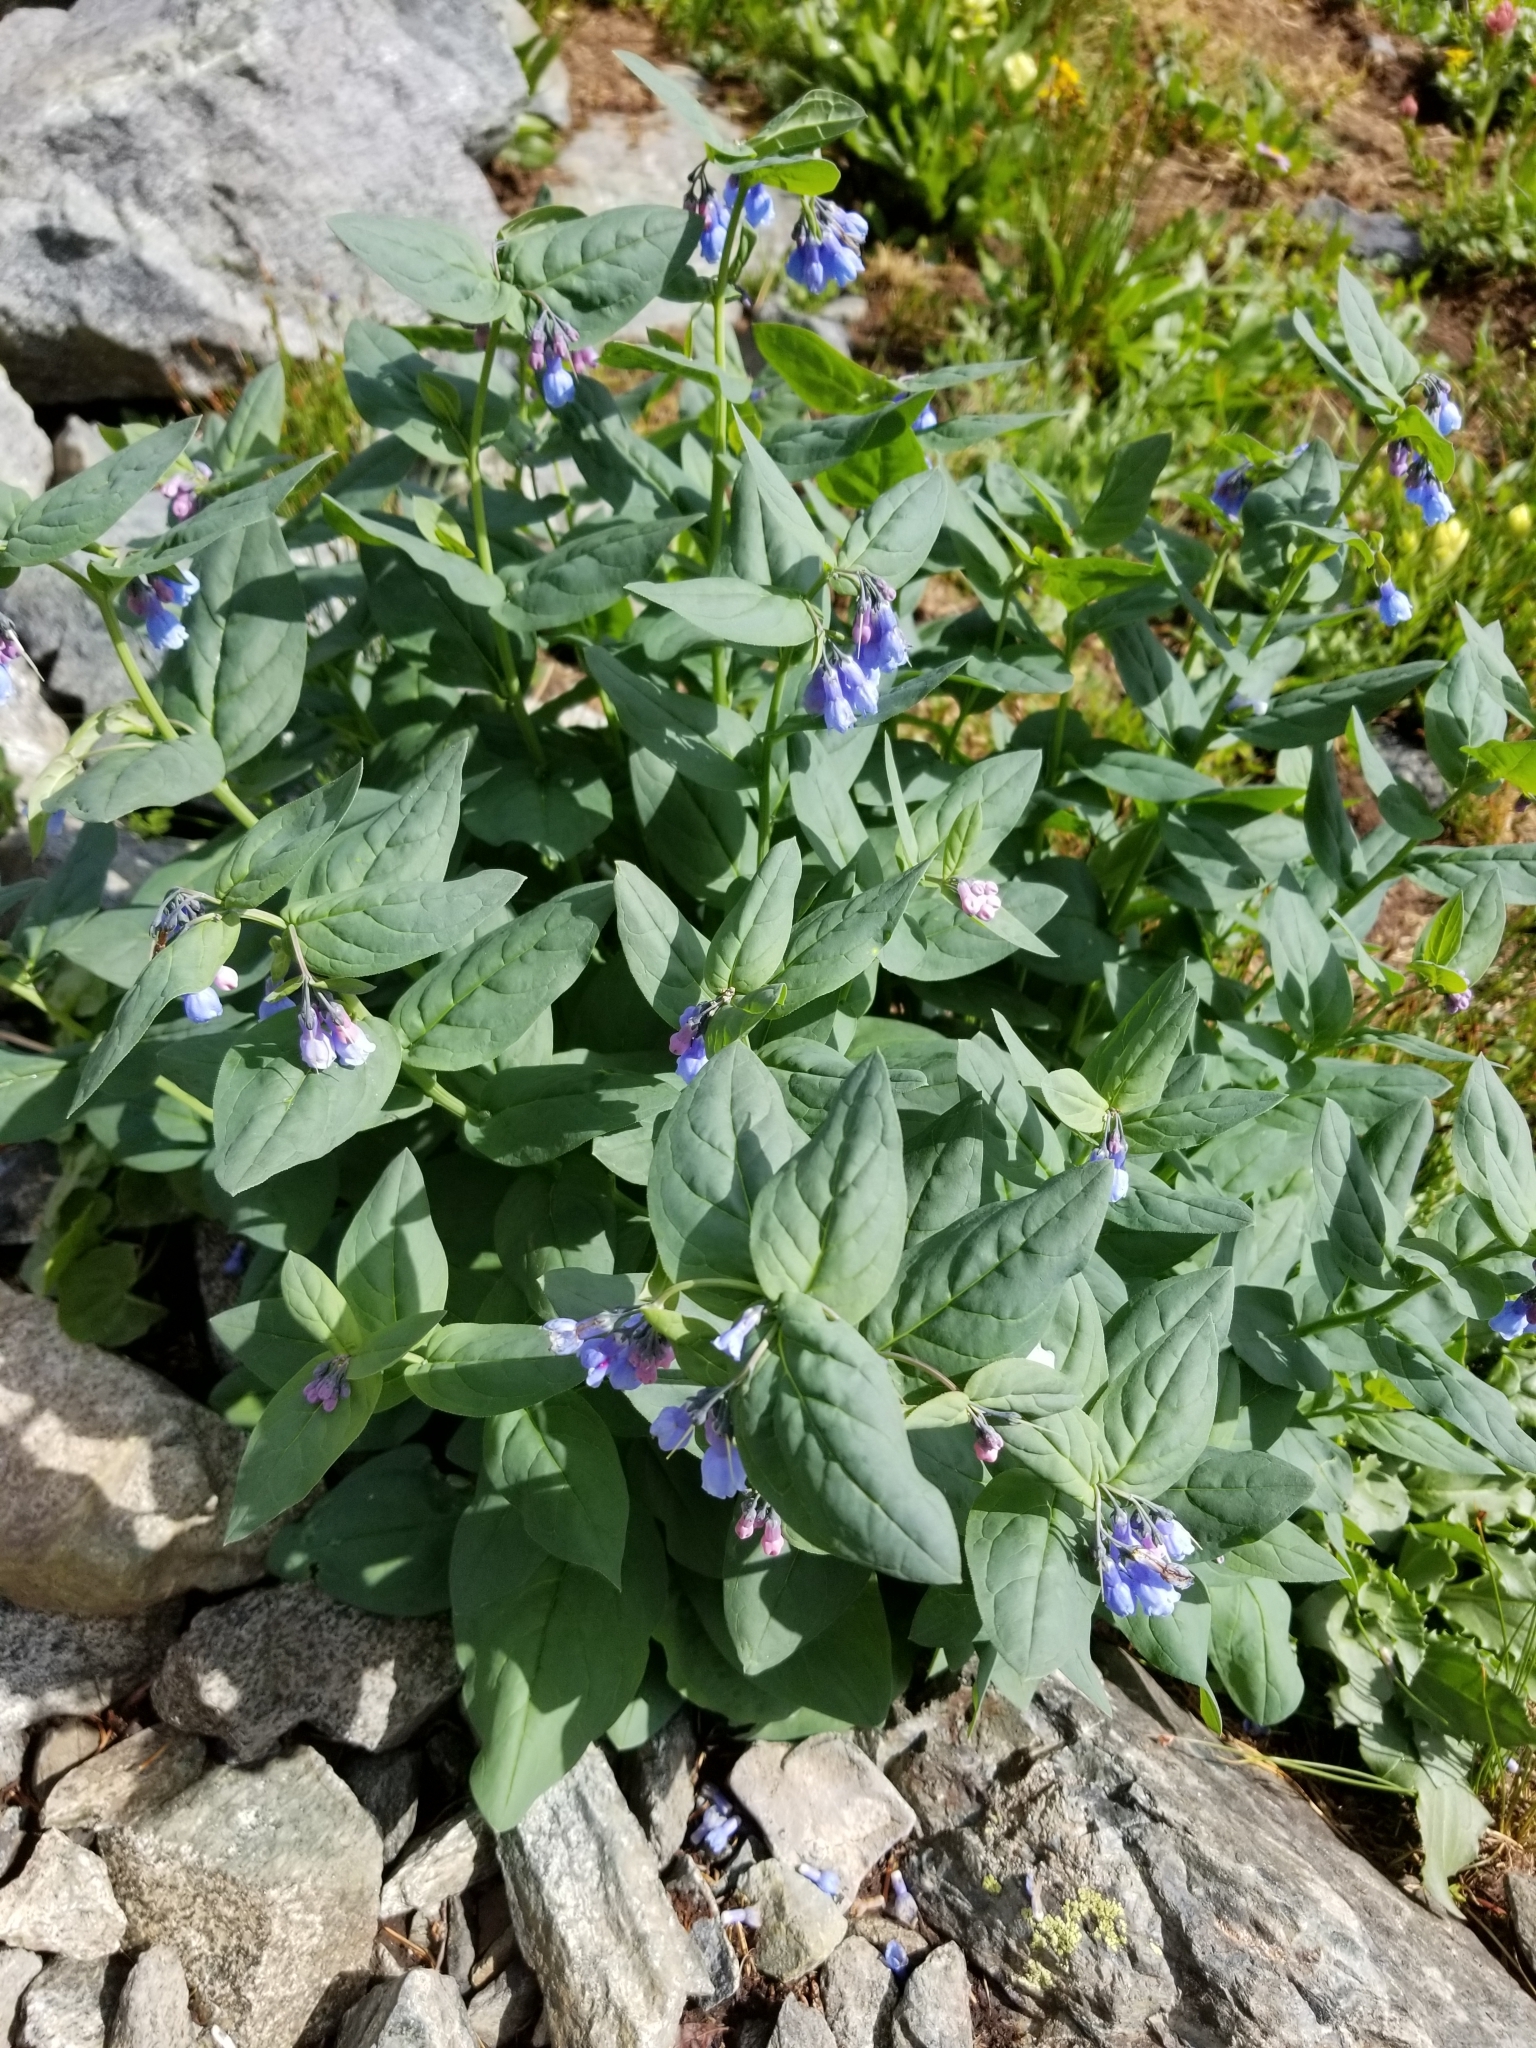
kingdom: Plantae
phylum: Tracheophyta
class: Magnoliopsida
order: Boraginales
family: Boraginaceae
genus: Mertensia
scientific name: Mertensia ciliata
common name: Tall chiming-bells
